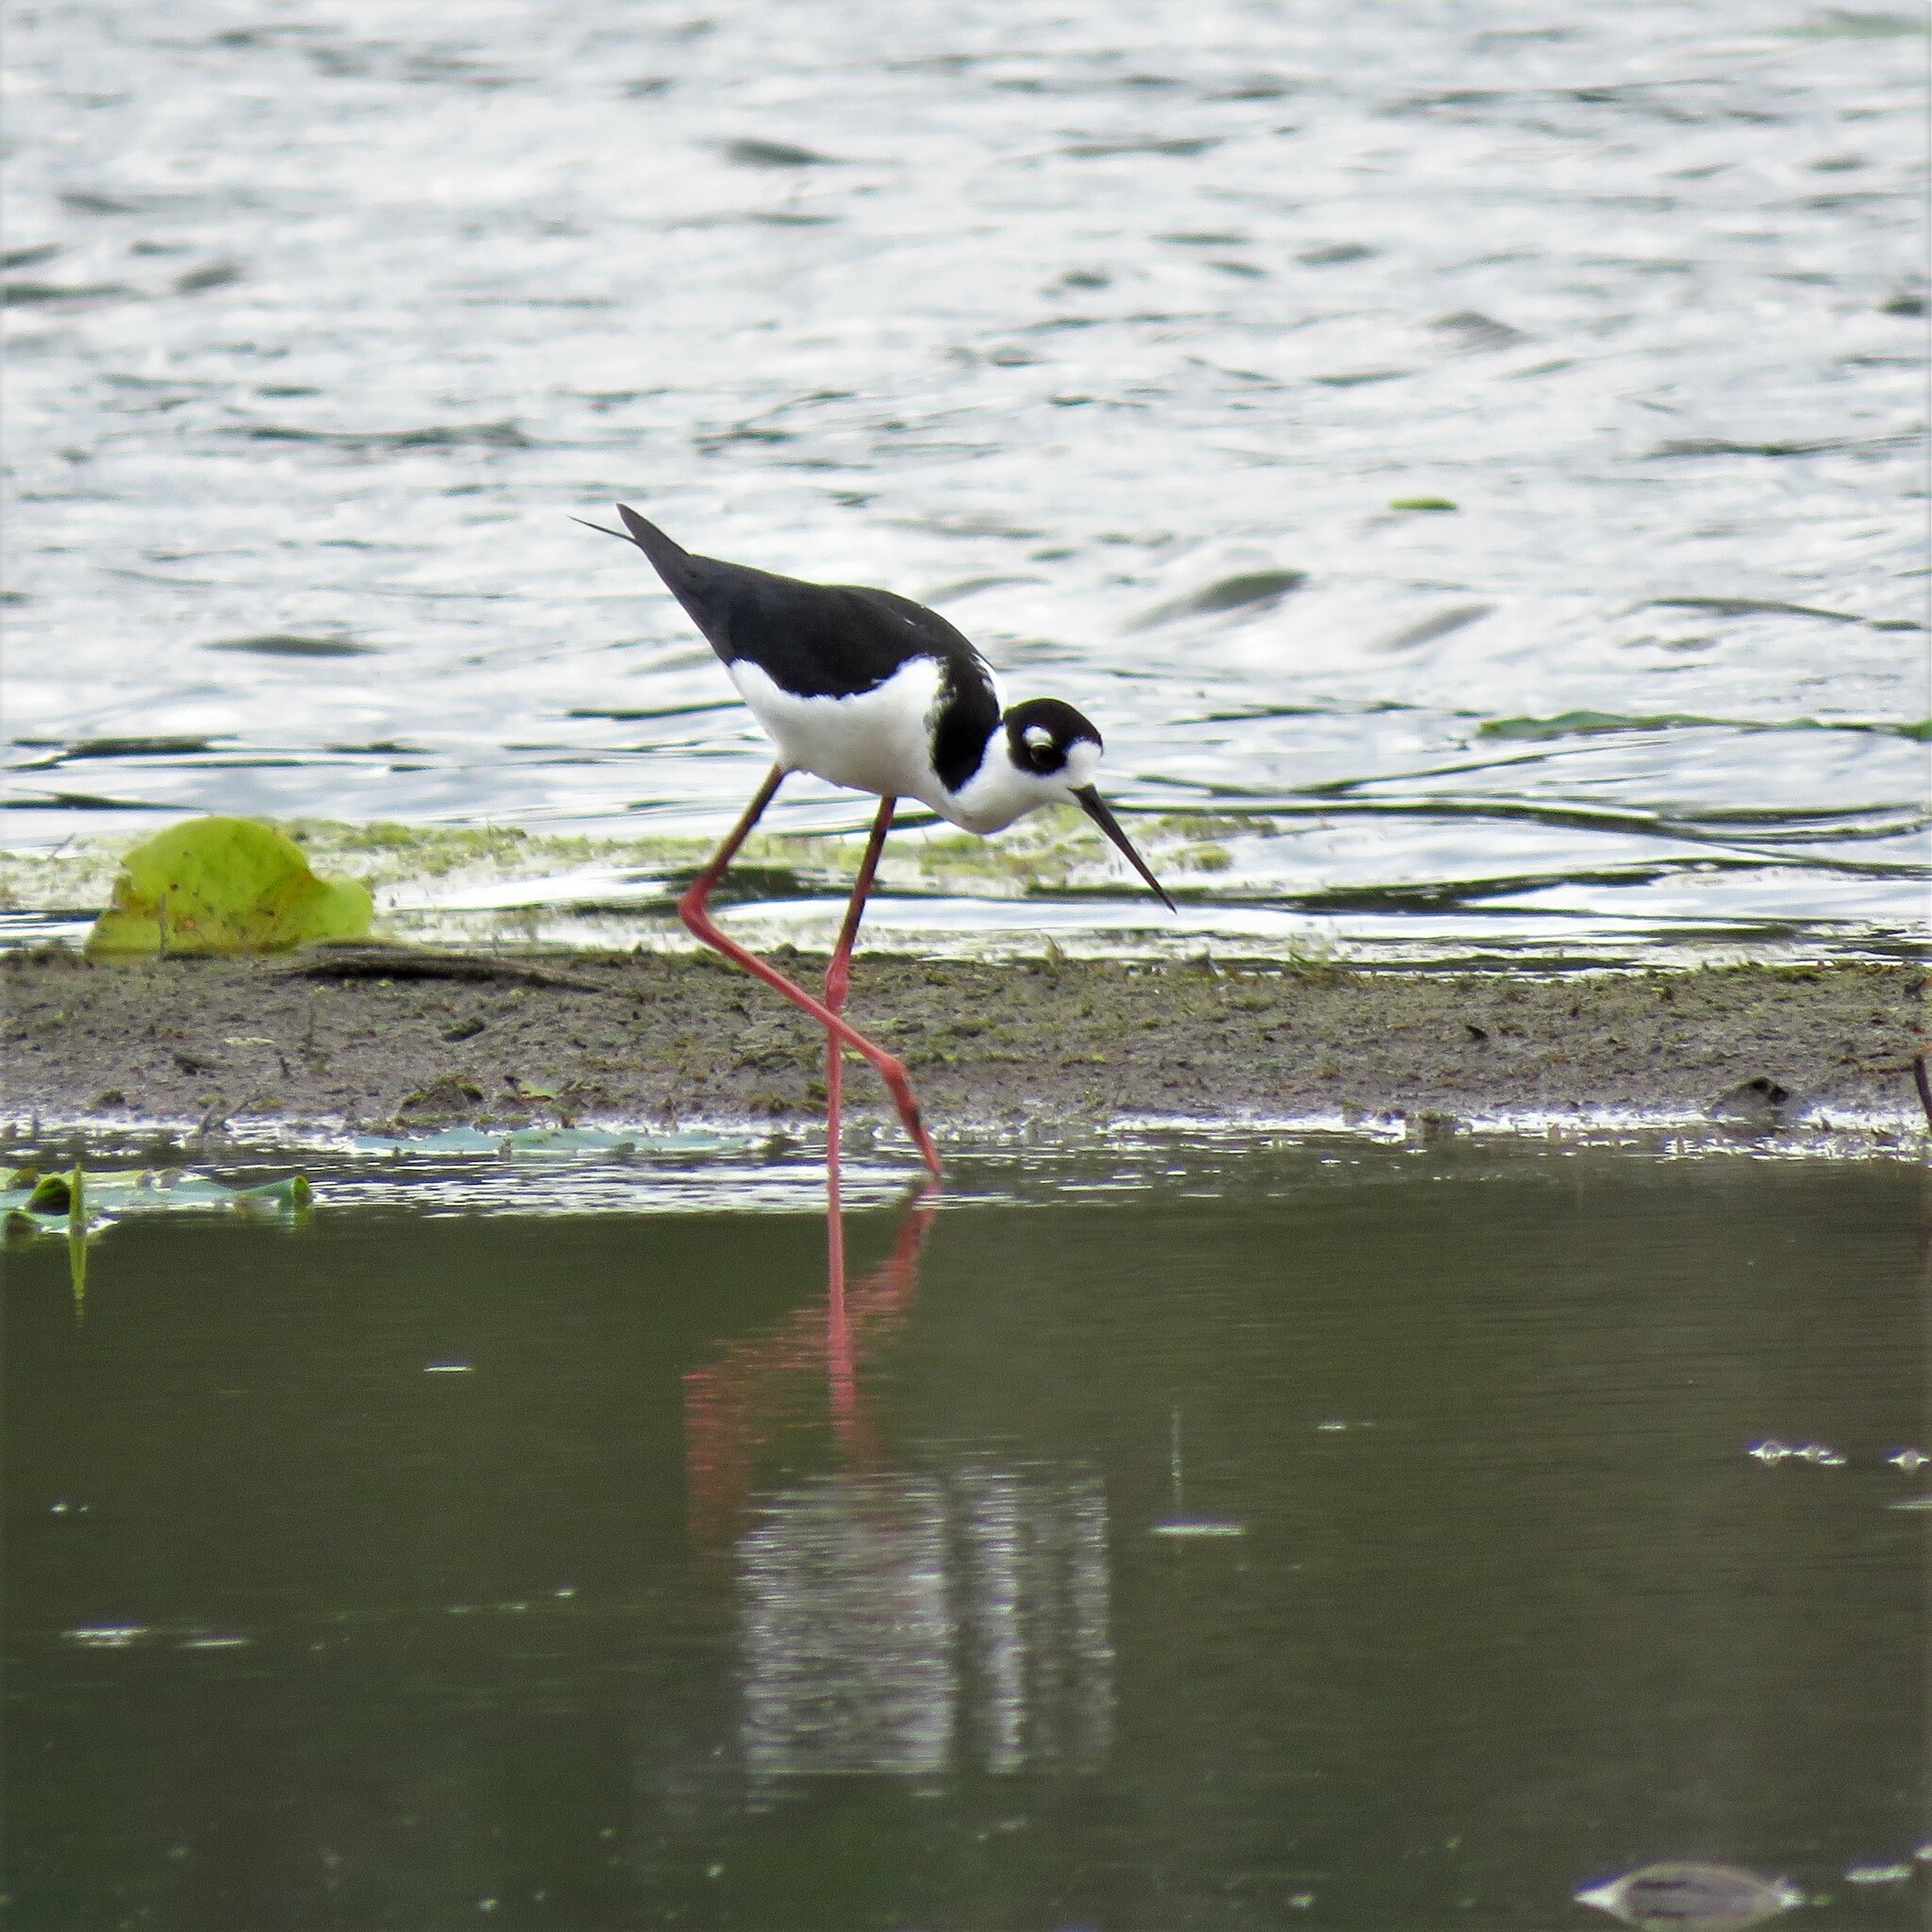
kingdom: Animalia
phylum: Chordata
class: Aves
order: Charadriiformes
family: Recurvirostridae
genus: Himantopus
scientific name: Himantopus mexicanus
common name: Black-necked stilt
